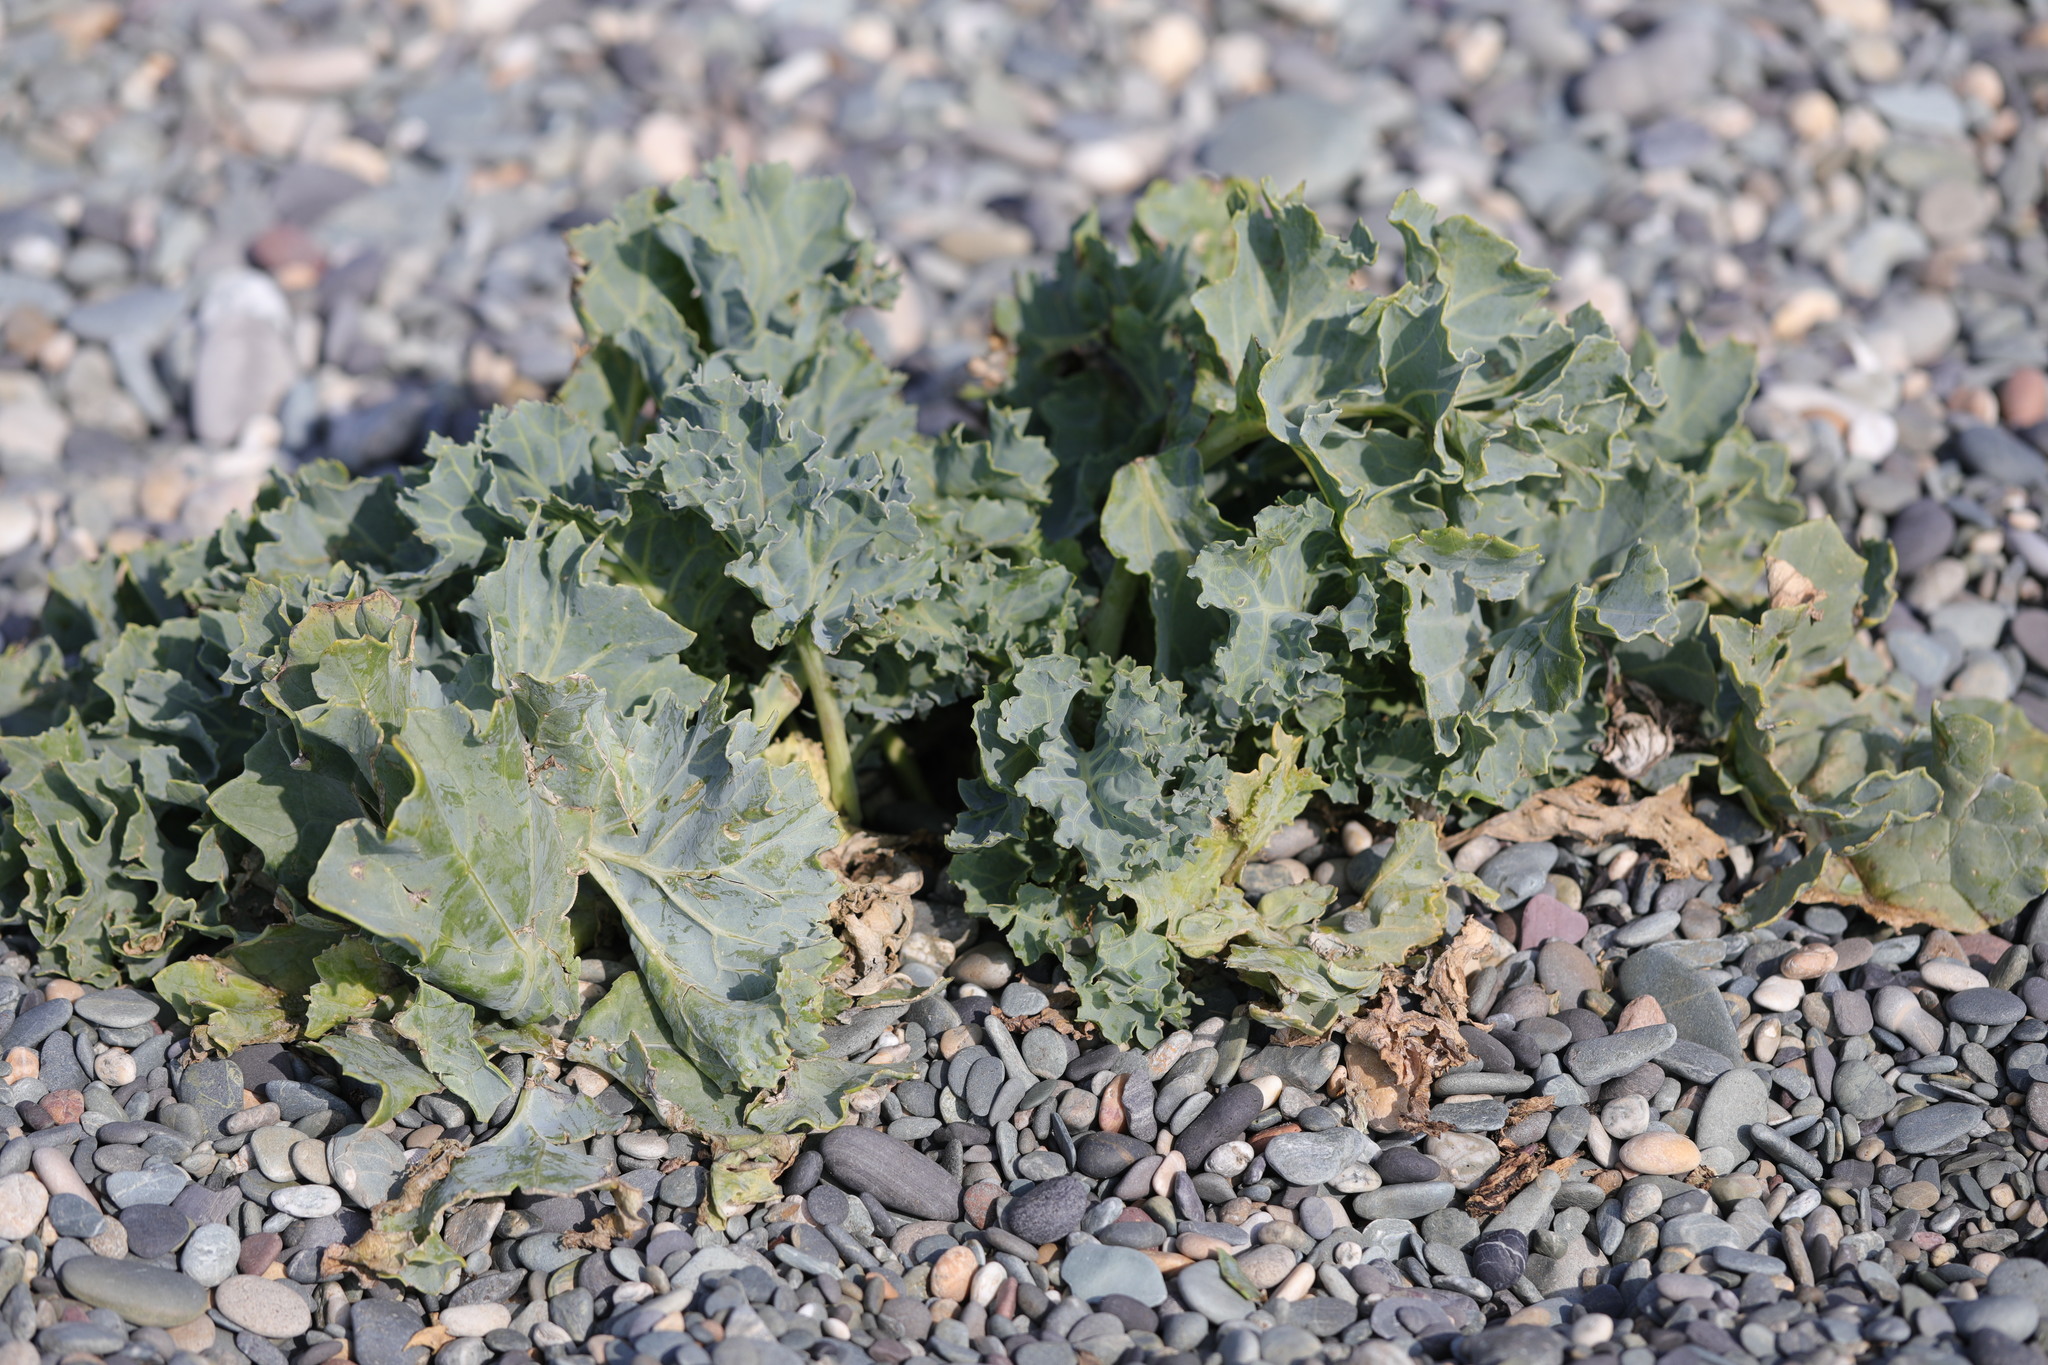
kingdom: Plantae
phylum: Tracheophyta
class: Magnoliopsida
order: Brassicales
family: Brassicaceae
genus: Crambe
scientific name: Crambe maritima
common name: Sea-kale
